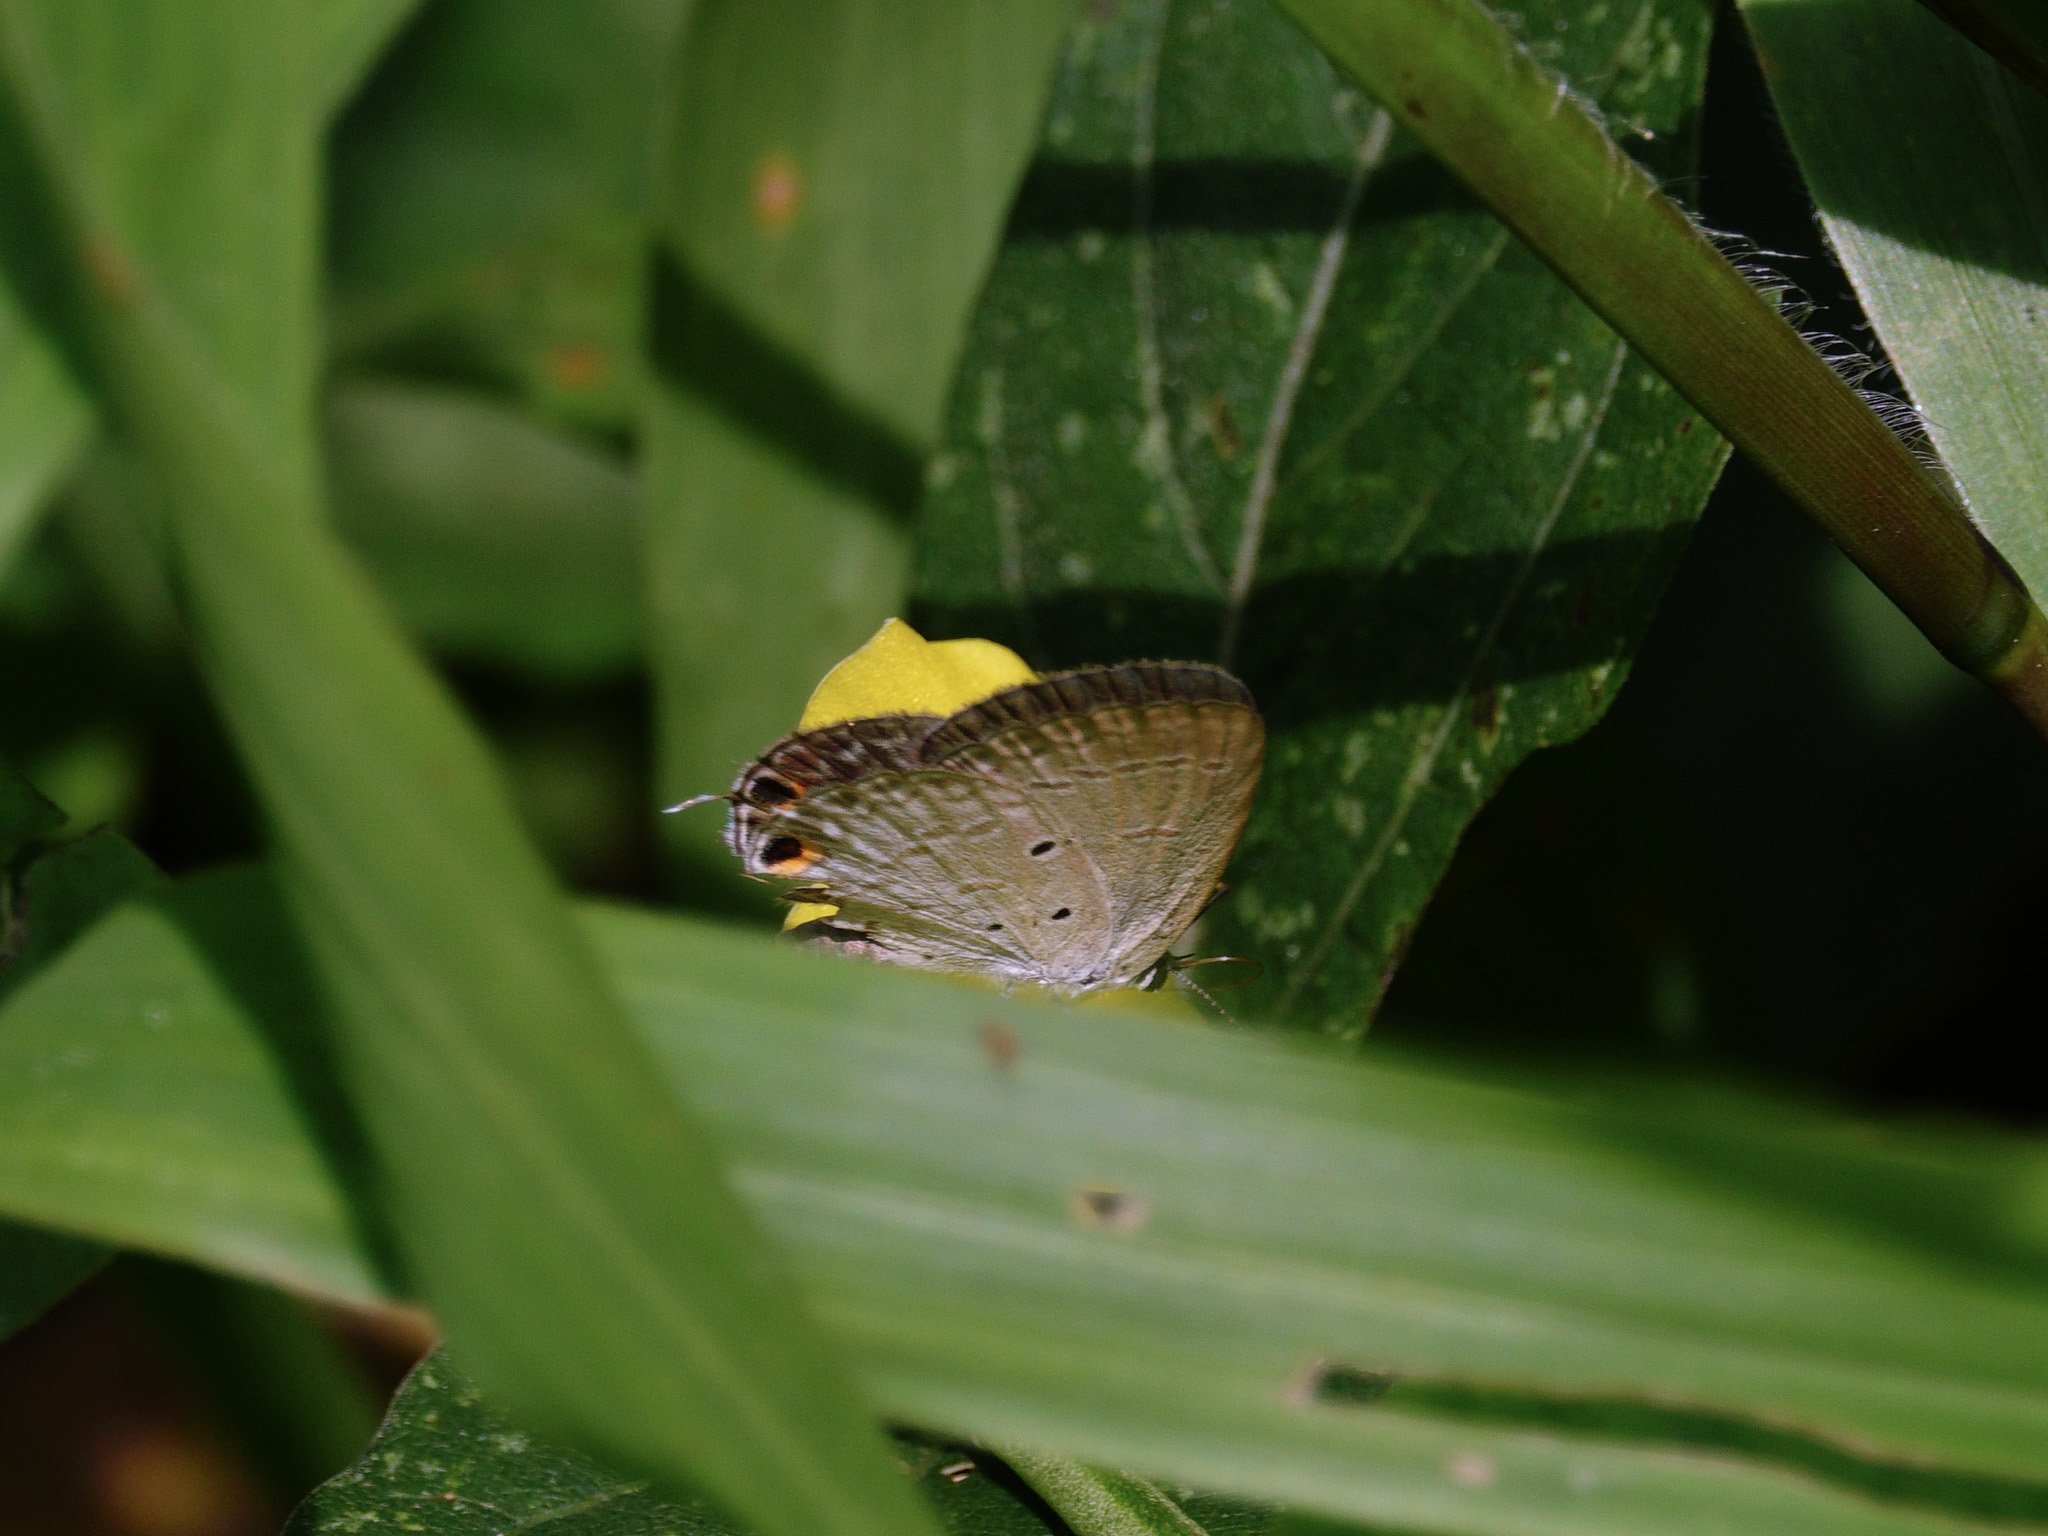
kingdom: Animalia
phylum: Arthropoda
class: Insecta
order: Lepidoptera
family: Lycaenidae
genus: Euchrysops
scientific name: Euchrysops cnejus
